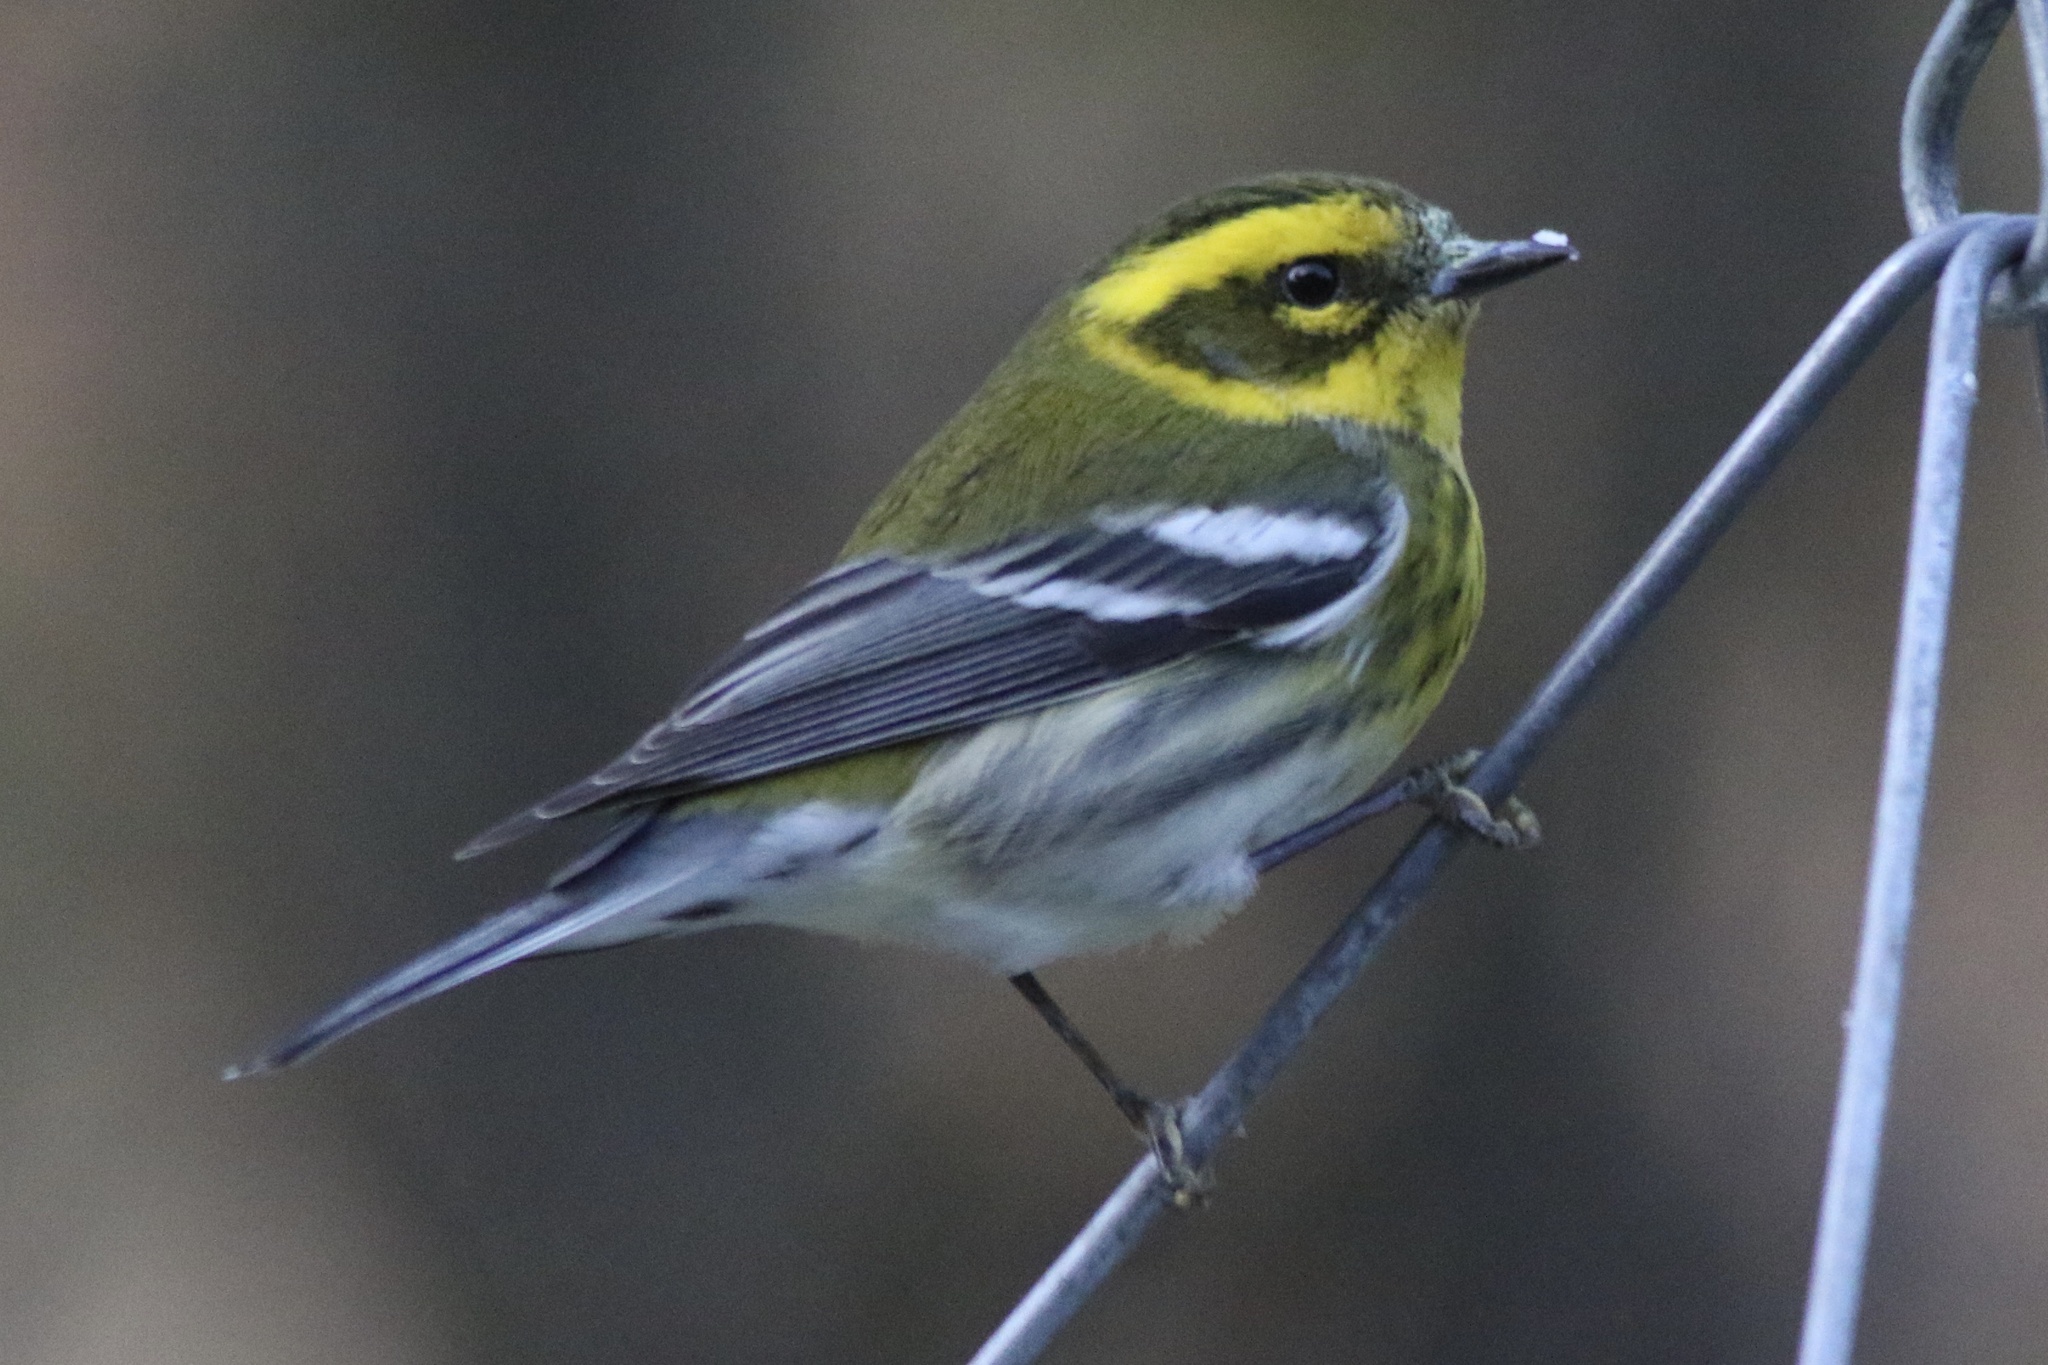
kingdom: Animalia
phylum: Chordata
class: Aves
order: Passeriformes
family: Parulidae
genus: Setophaga
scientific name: Setophaga townsendi
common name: Townsend's warbler
